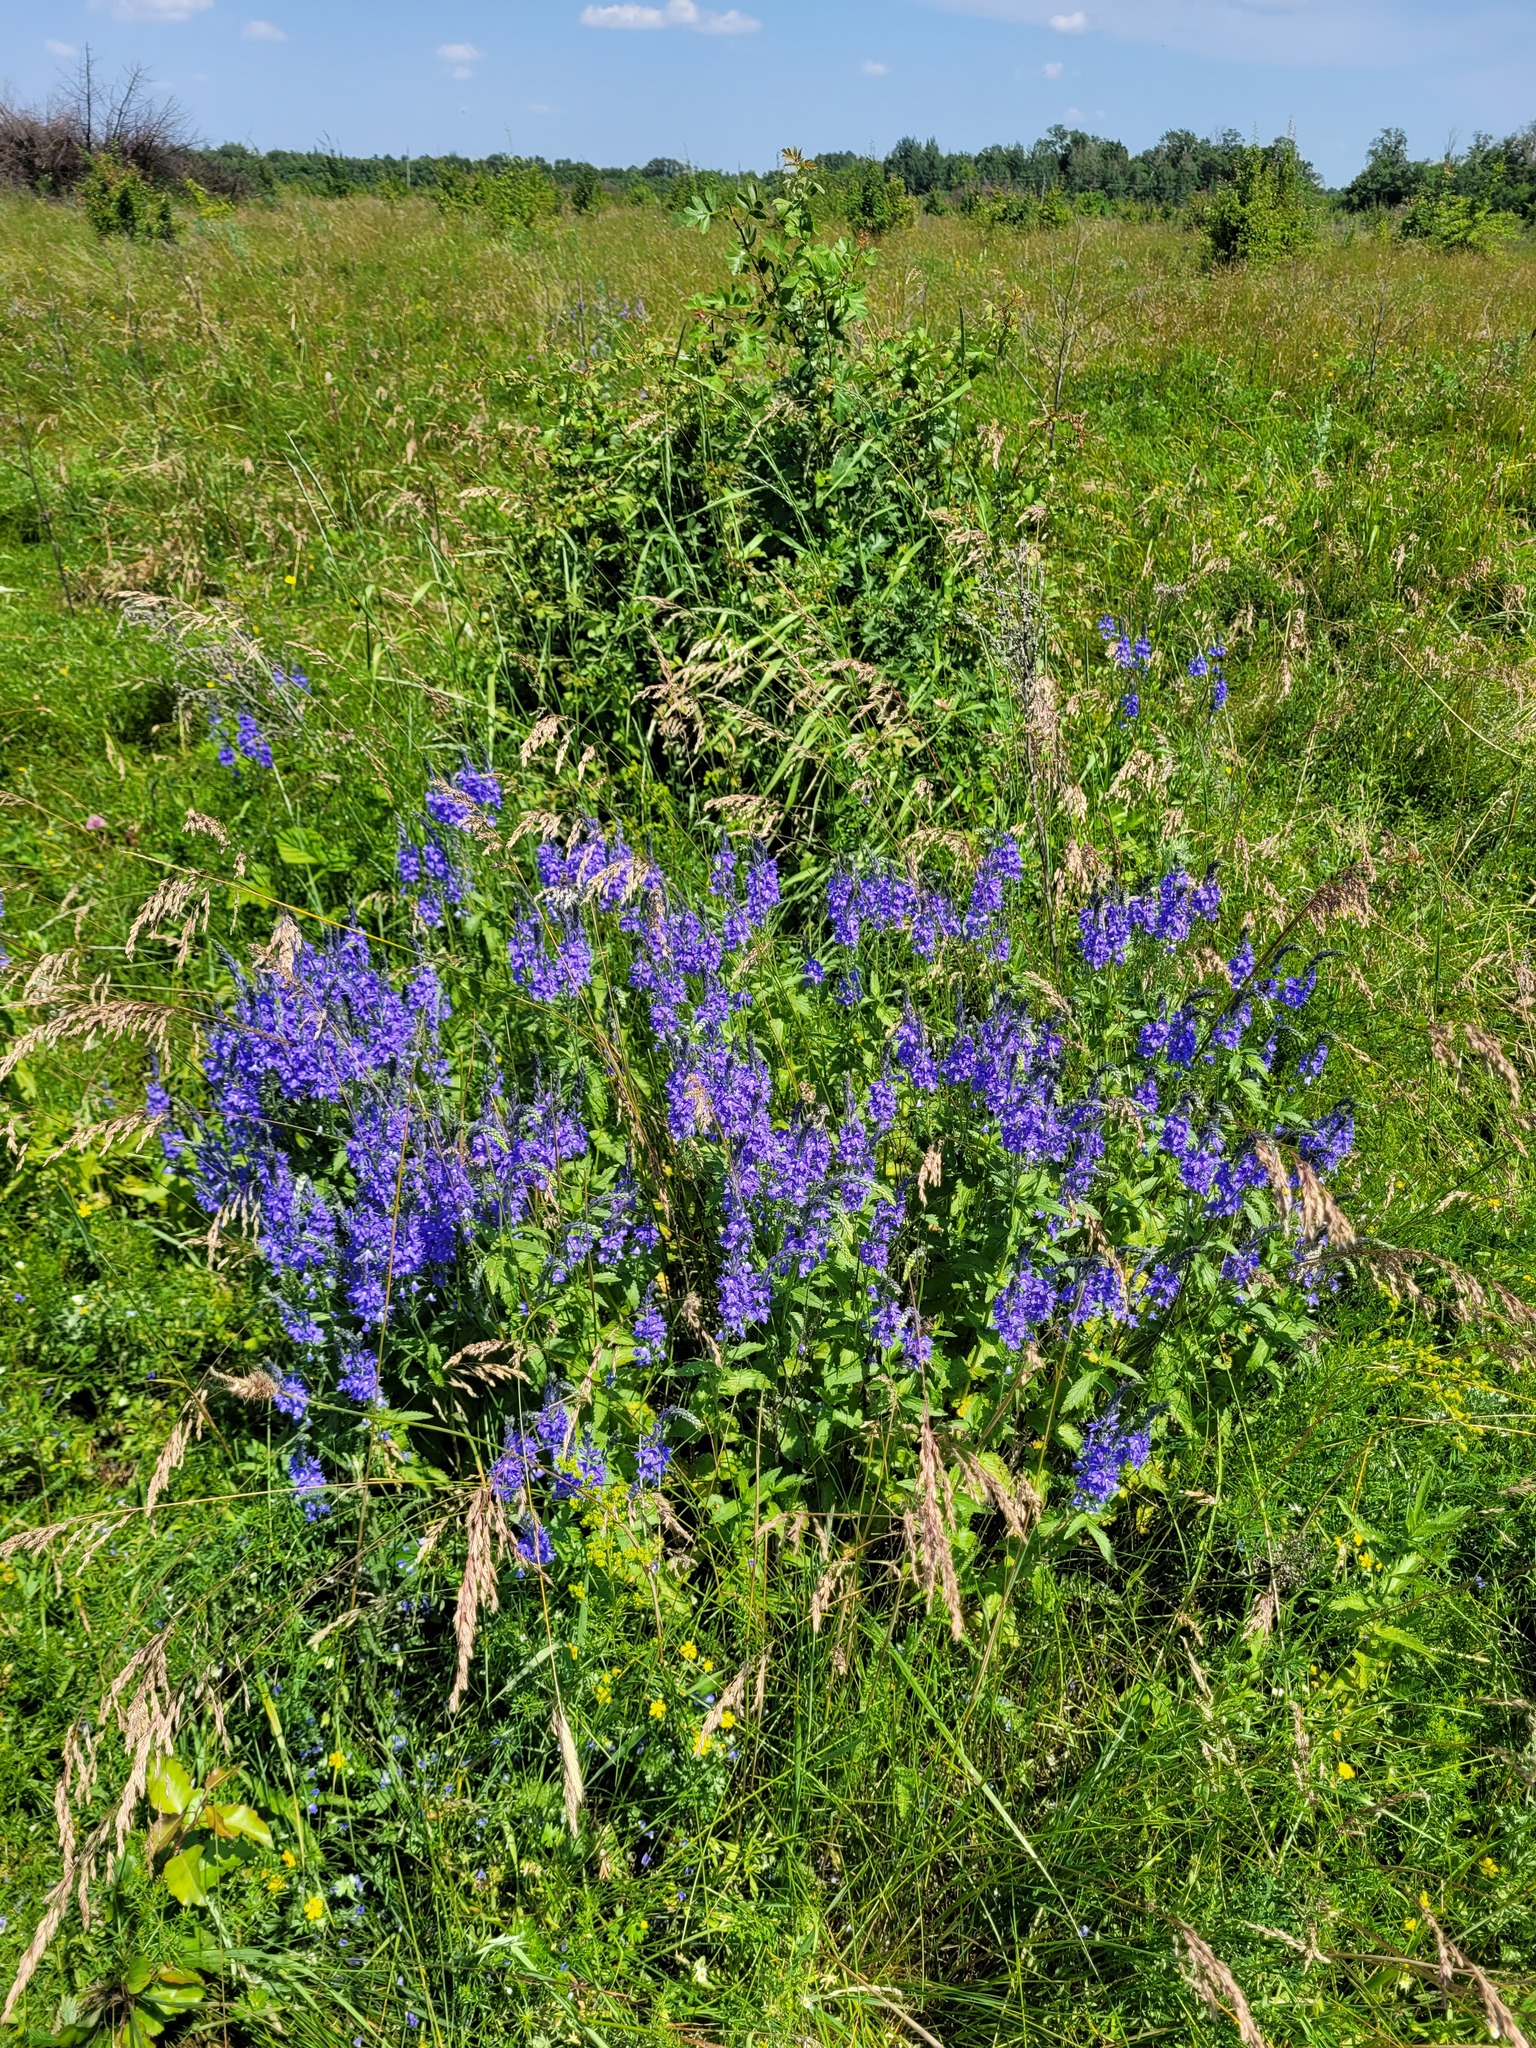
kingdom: Plantae
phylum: Tracheophyta
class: Magnoliopsida
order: Lamiales
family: Plantaginaceae
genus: Veronica
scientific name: Veronica teucrium
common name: Large speedwell
